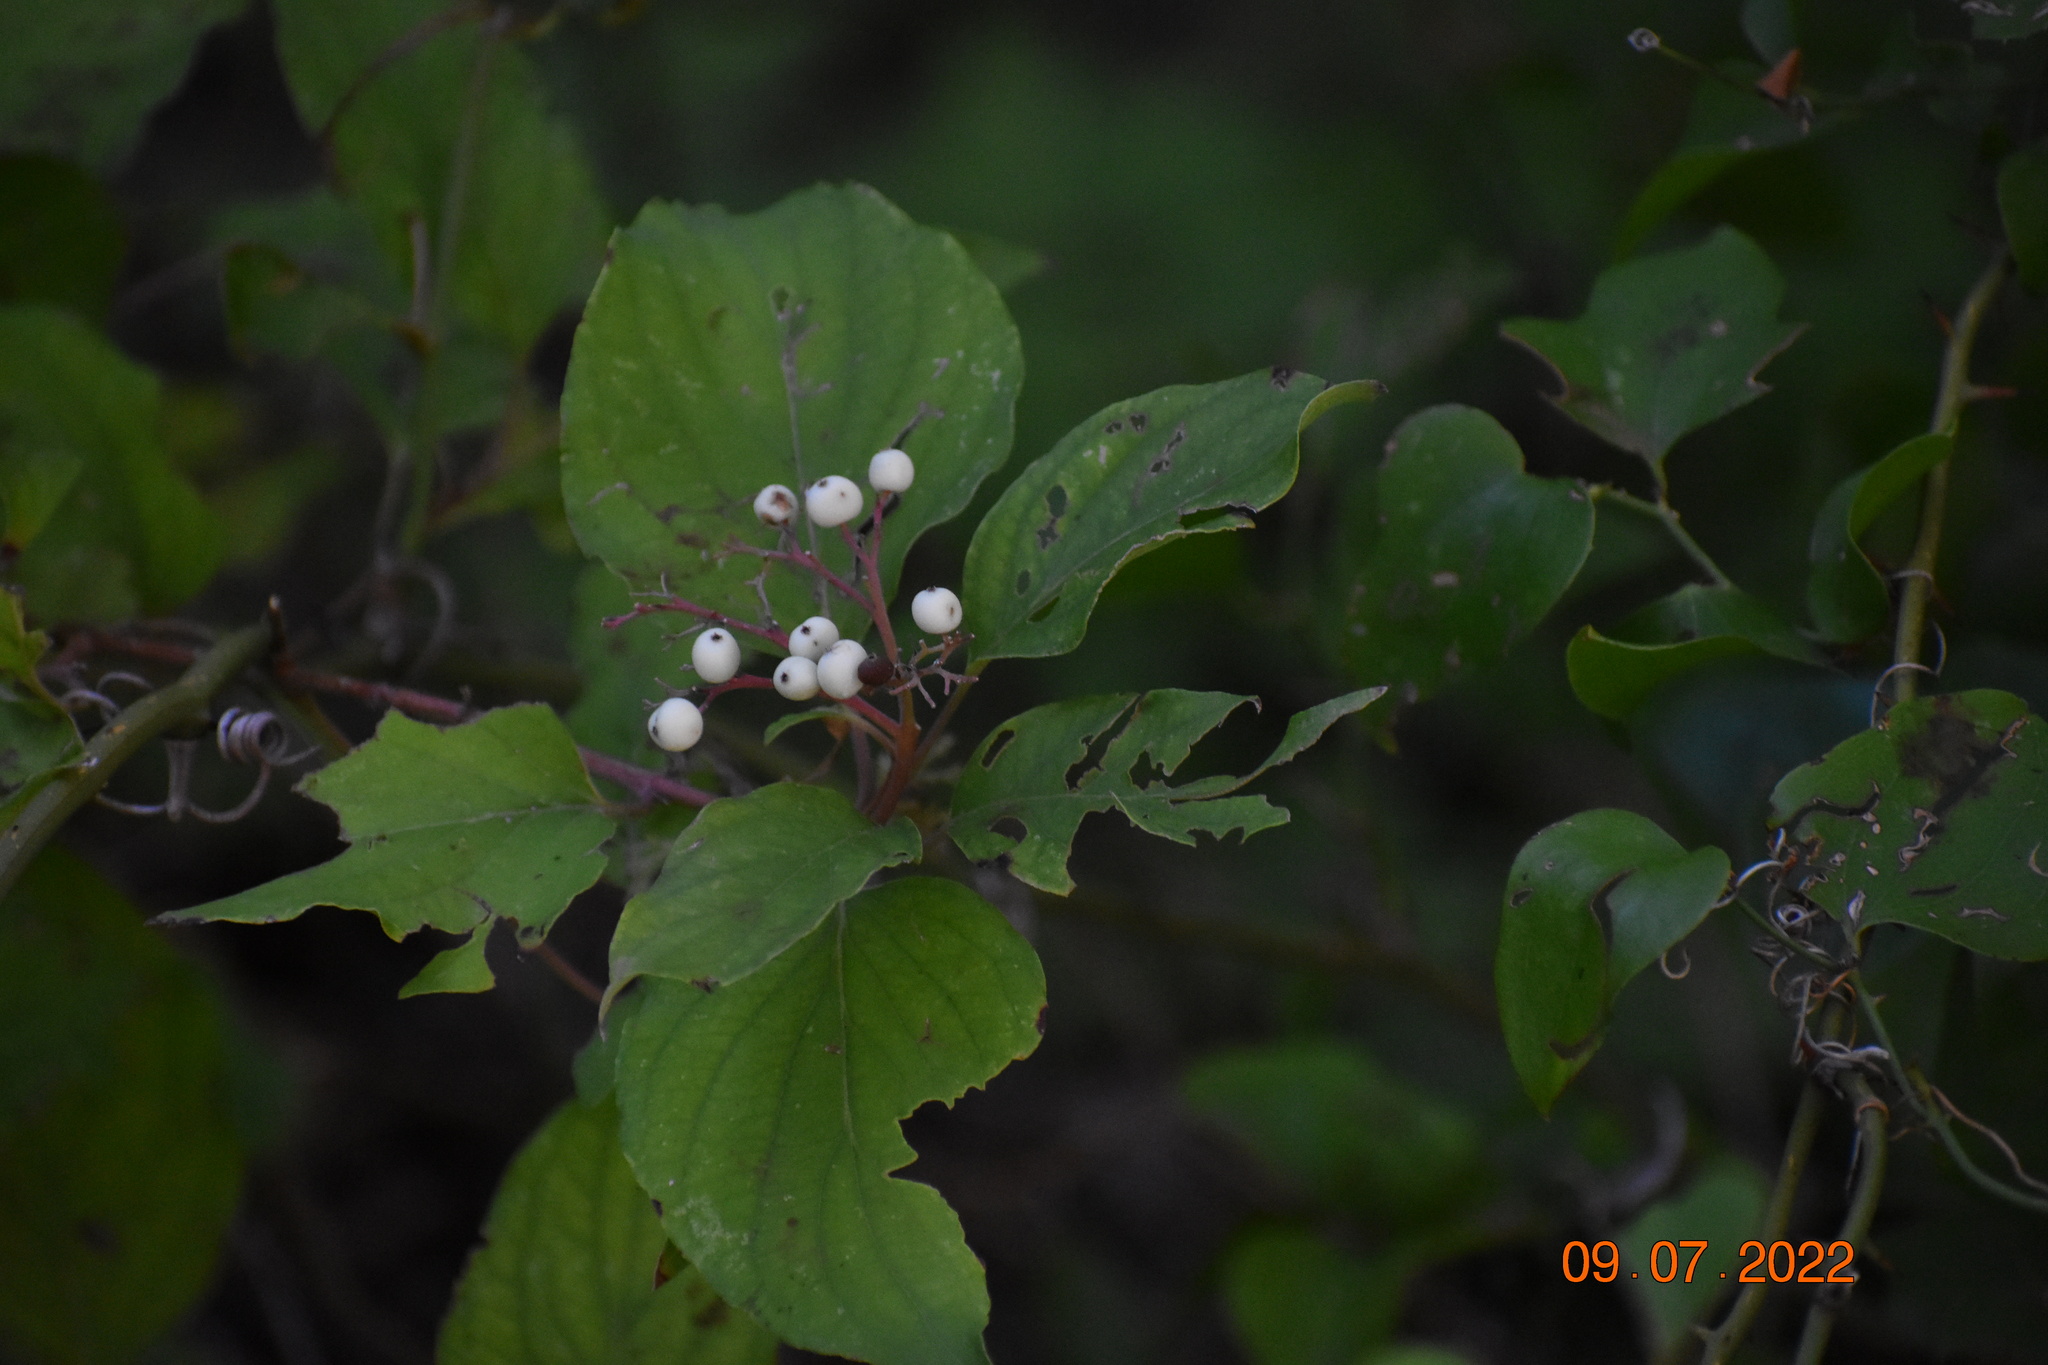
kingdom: Plantae
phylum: Tracheophyta
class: Magnoliopsida
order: Cornales
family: Cornaceae
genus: Cornus
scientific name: Cornus drummondii
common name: Rough-leaf dogwood
